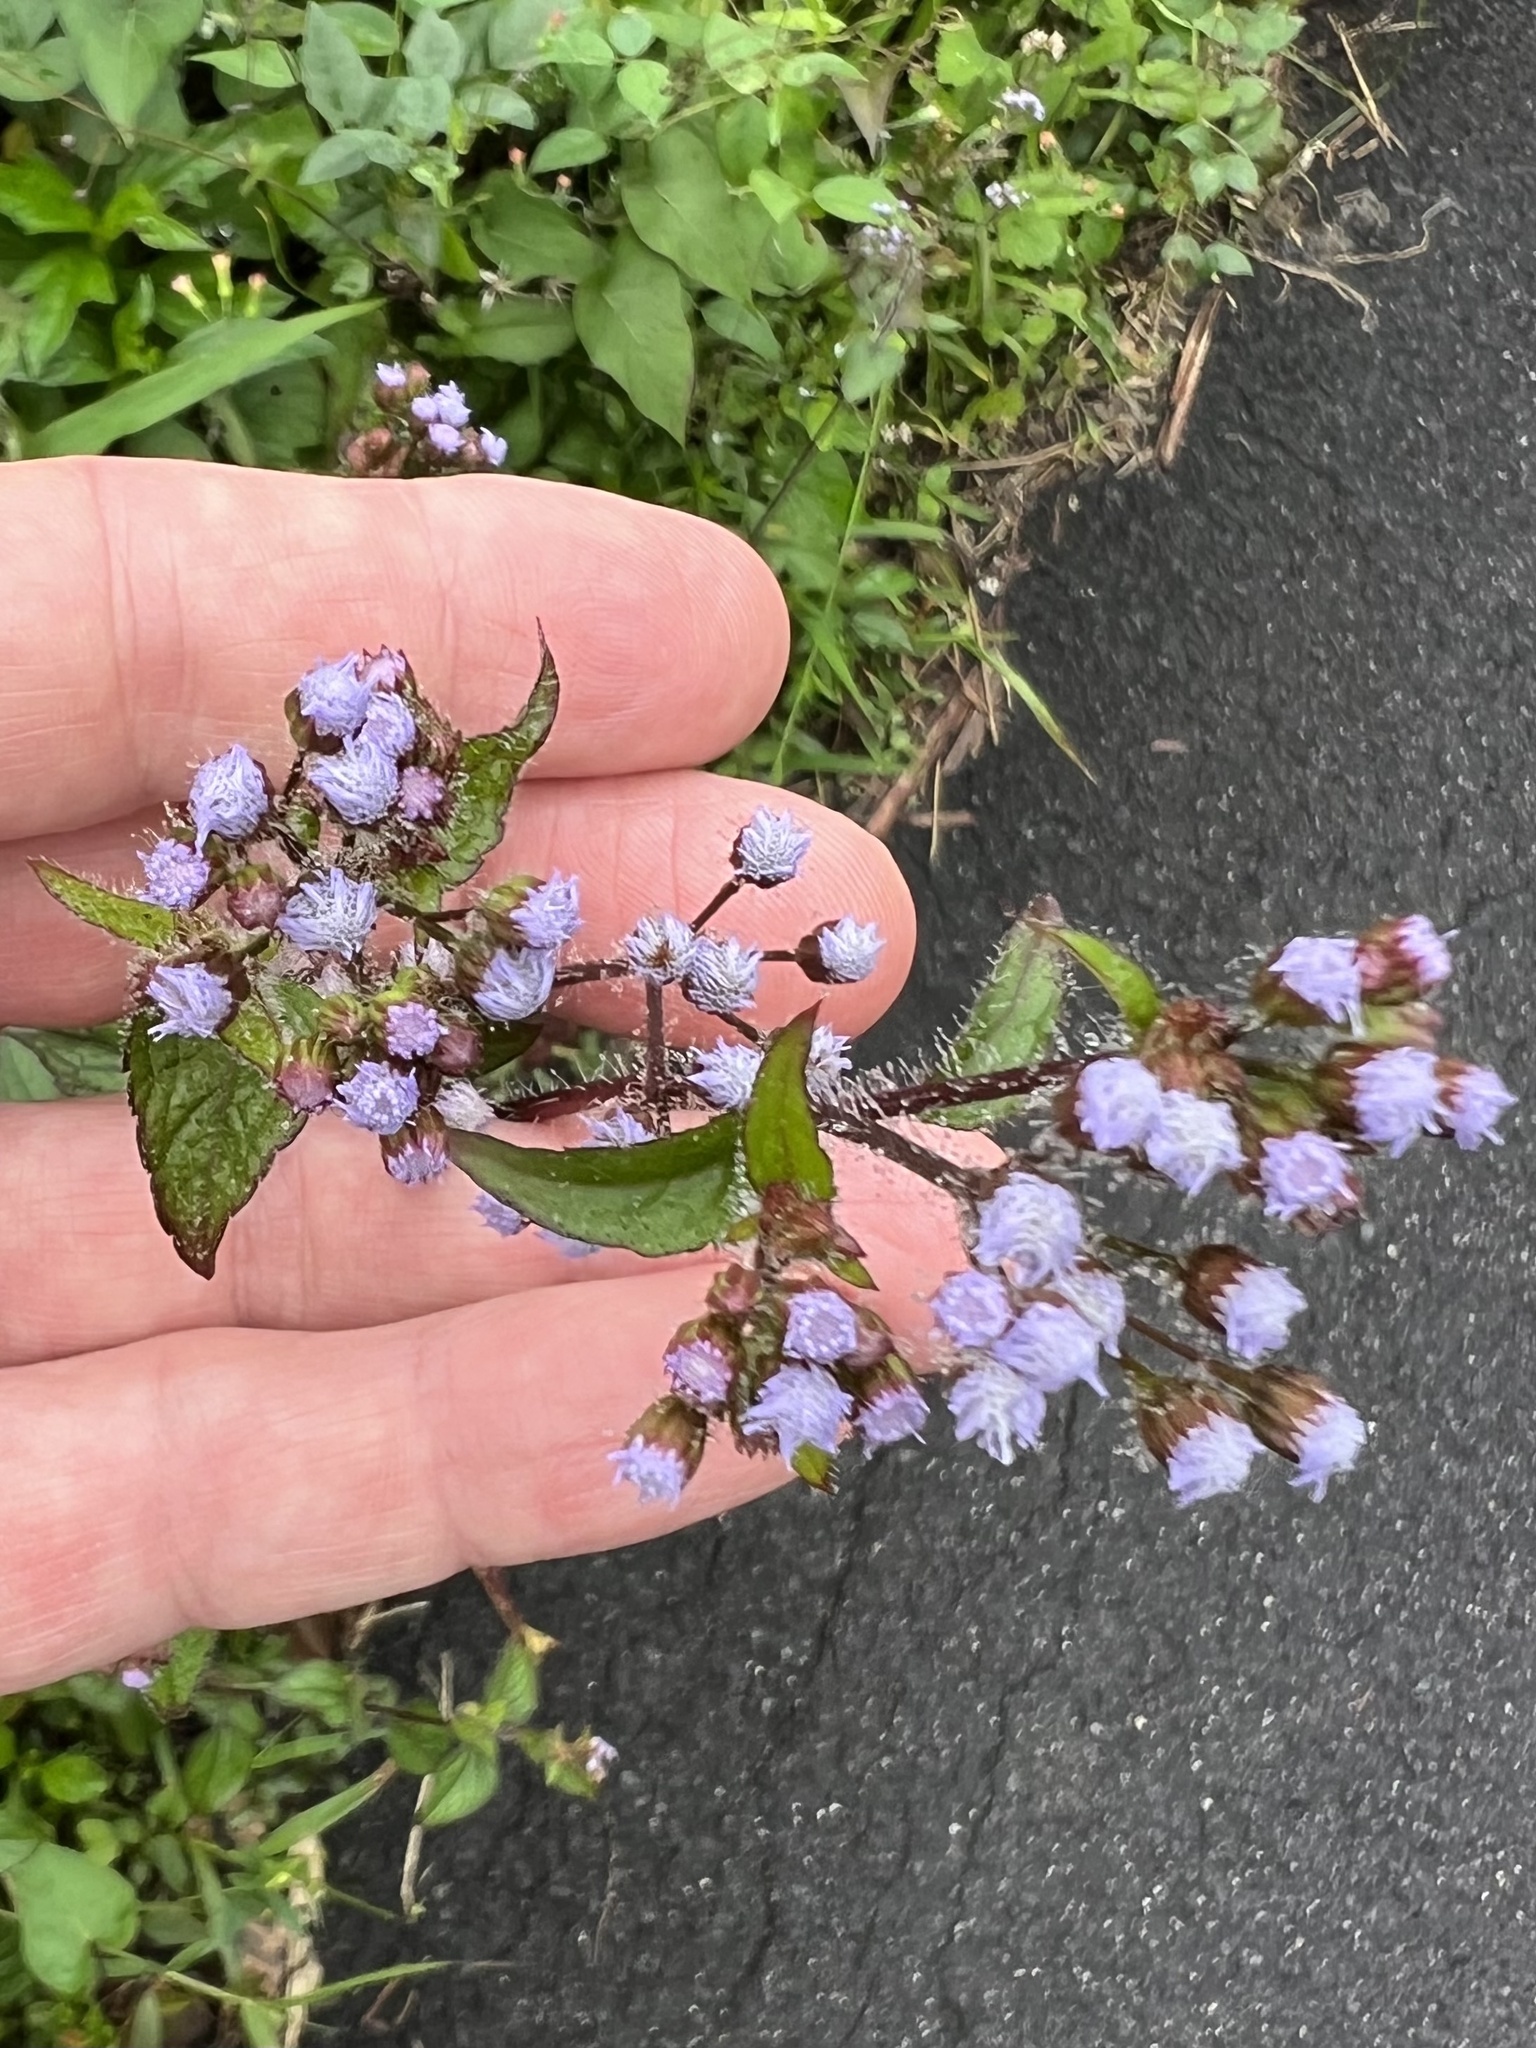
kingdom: Plantae
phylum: Tracheophyta
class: Magnoliopsida
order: Asterales
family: Asteraceae
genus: Ageratum
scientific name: Ageratum conyzoides
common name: Tropical whiteweed
